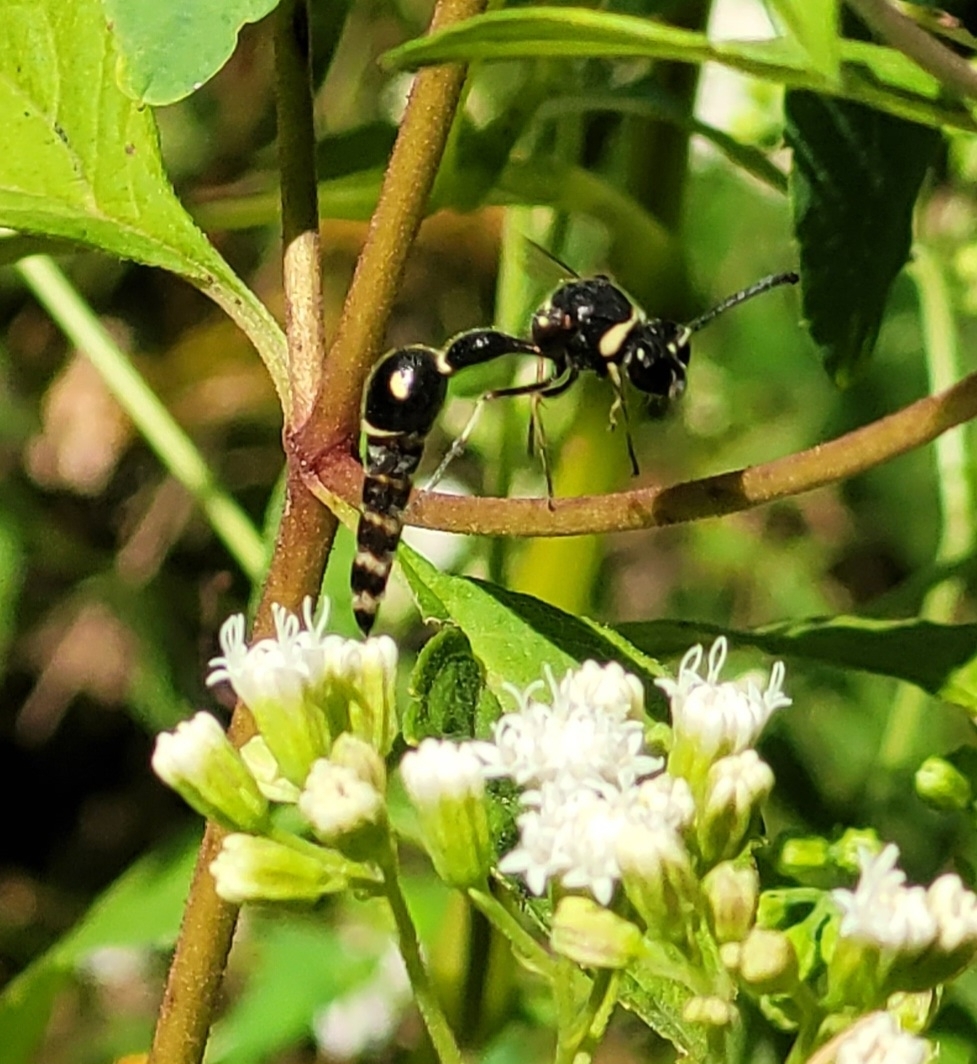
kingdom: Animalia
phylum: Arthropoda
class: Insecta
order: Hymenoptera
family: Vespidae
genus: Eumenes
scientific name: Eumenes fraternus
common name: Fraternal potter wasp
